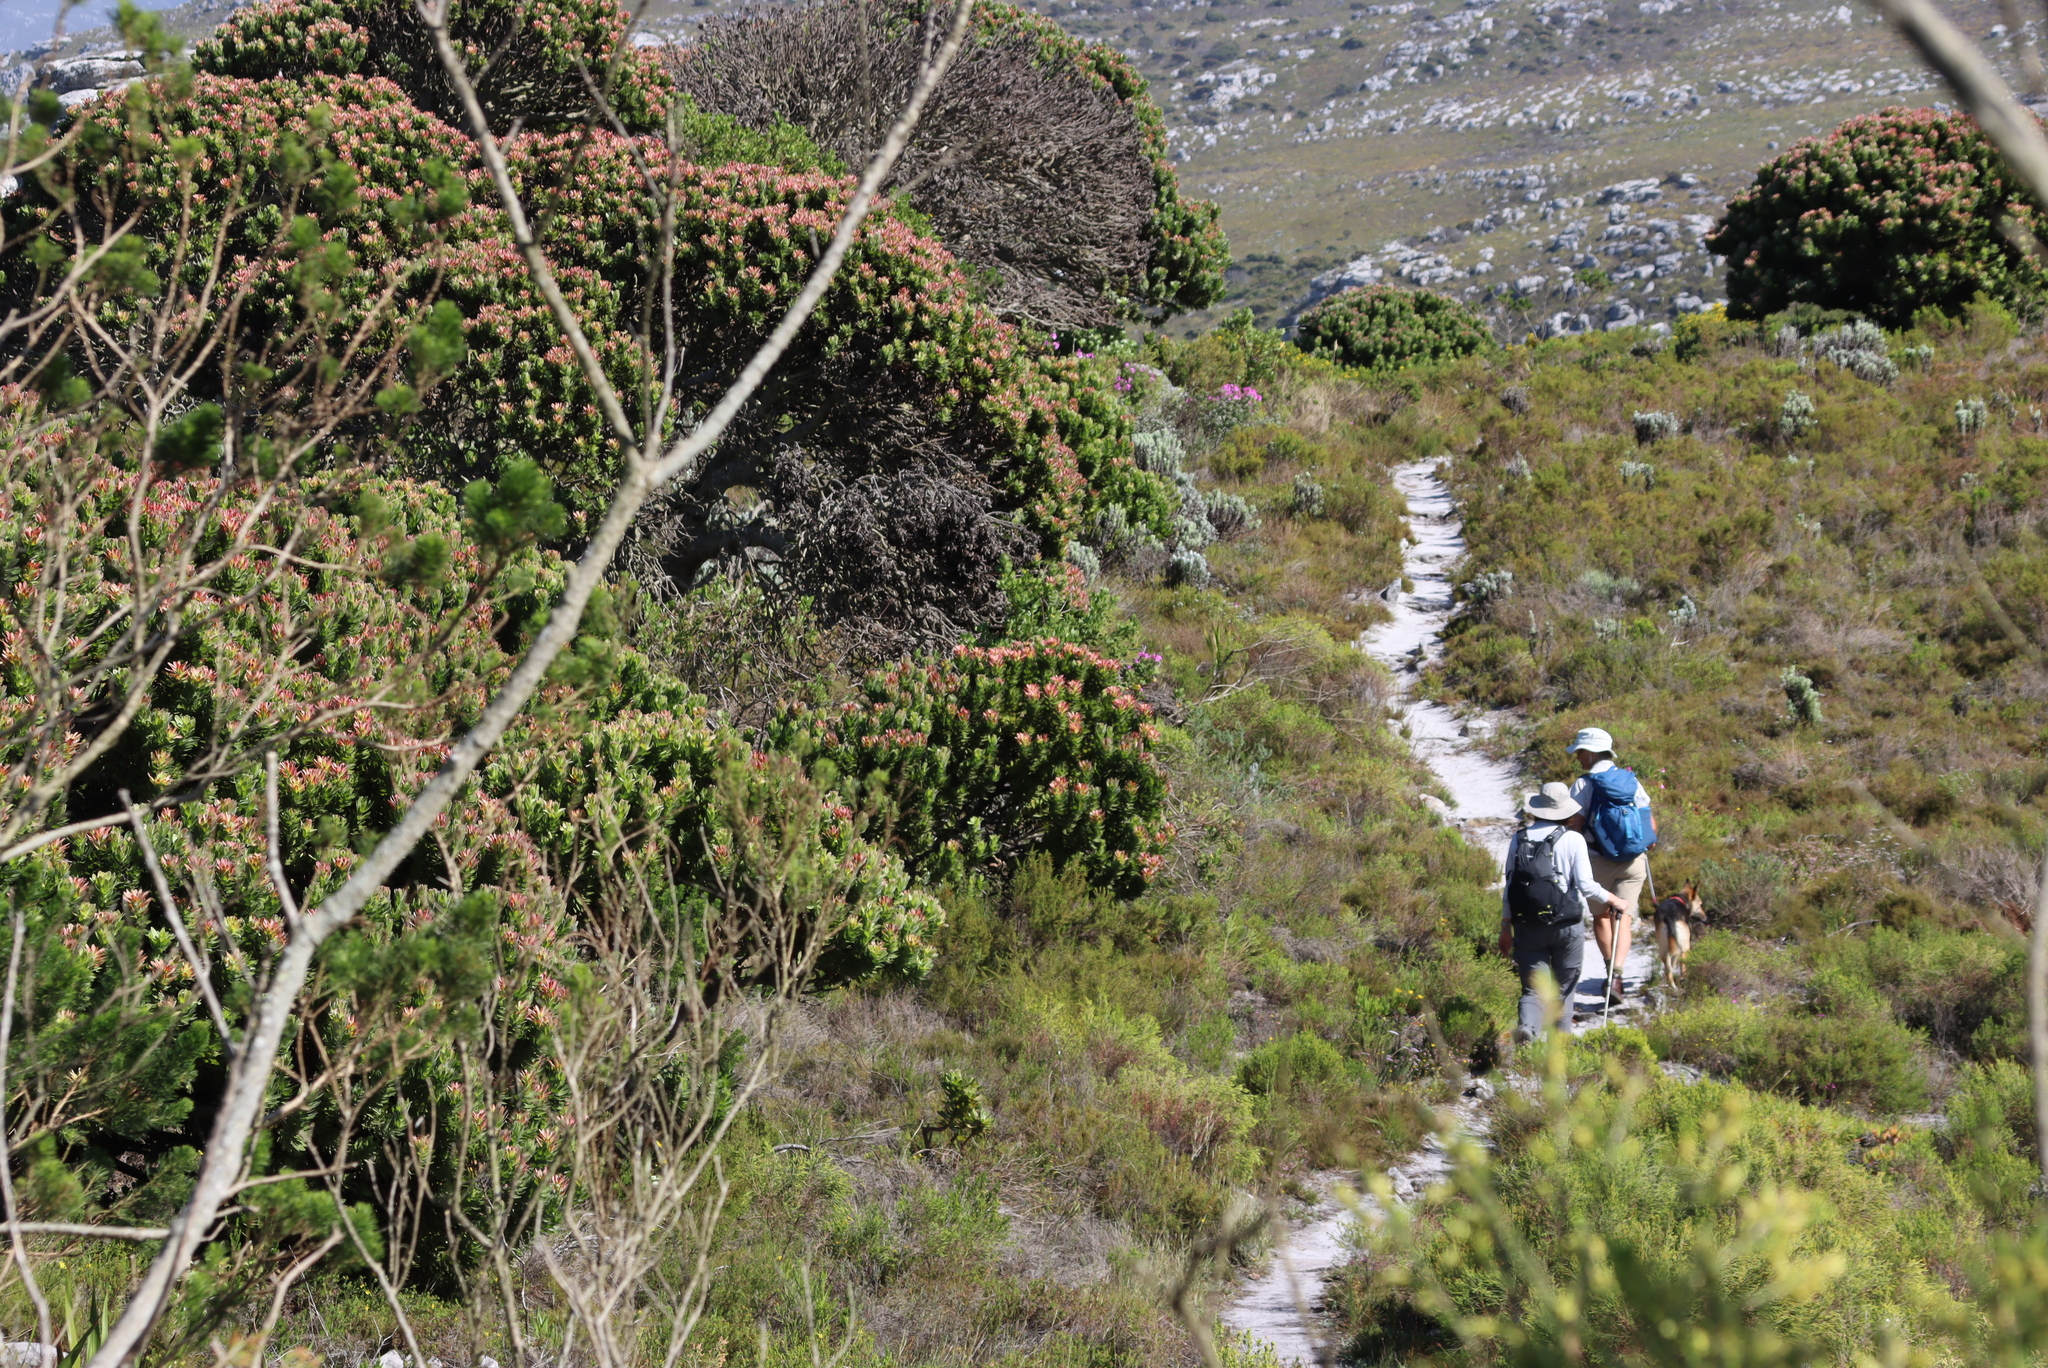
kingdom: Plantae
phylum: Tracheophyta
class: Magnoliopsida
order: Proteales
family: Proteaceae
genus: Mimetes
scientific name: Mimetes fimbriifolius
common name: Fringed bottlebrush
